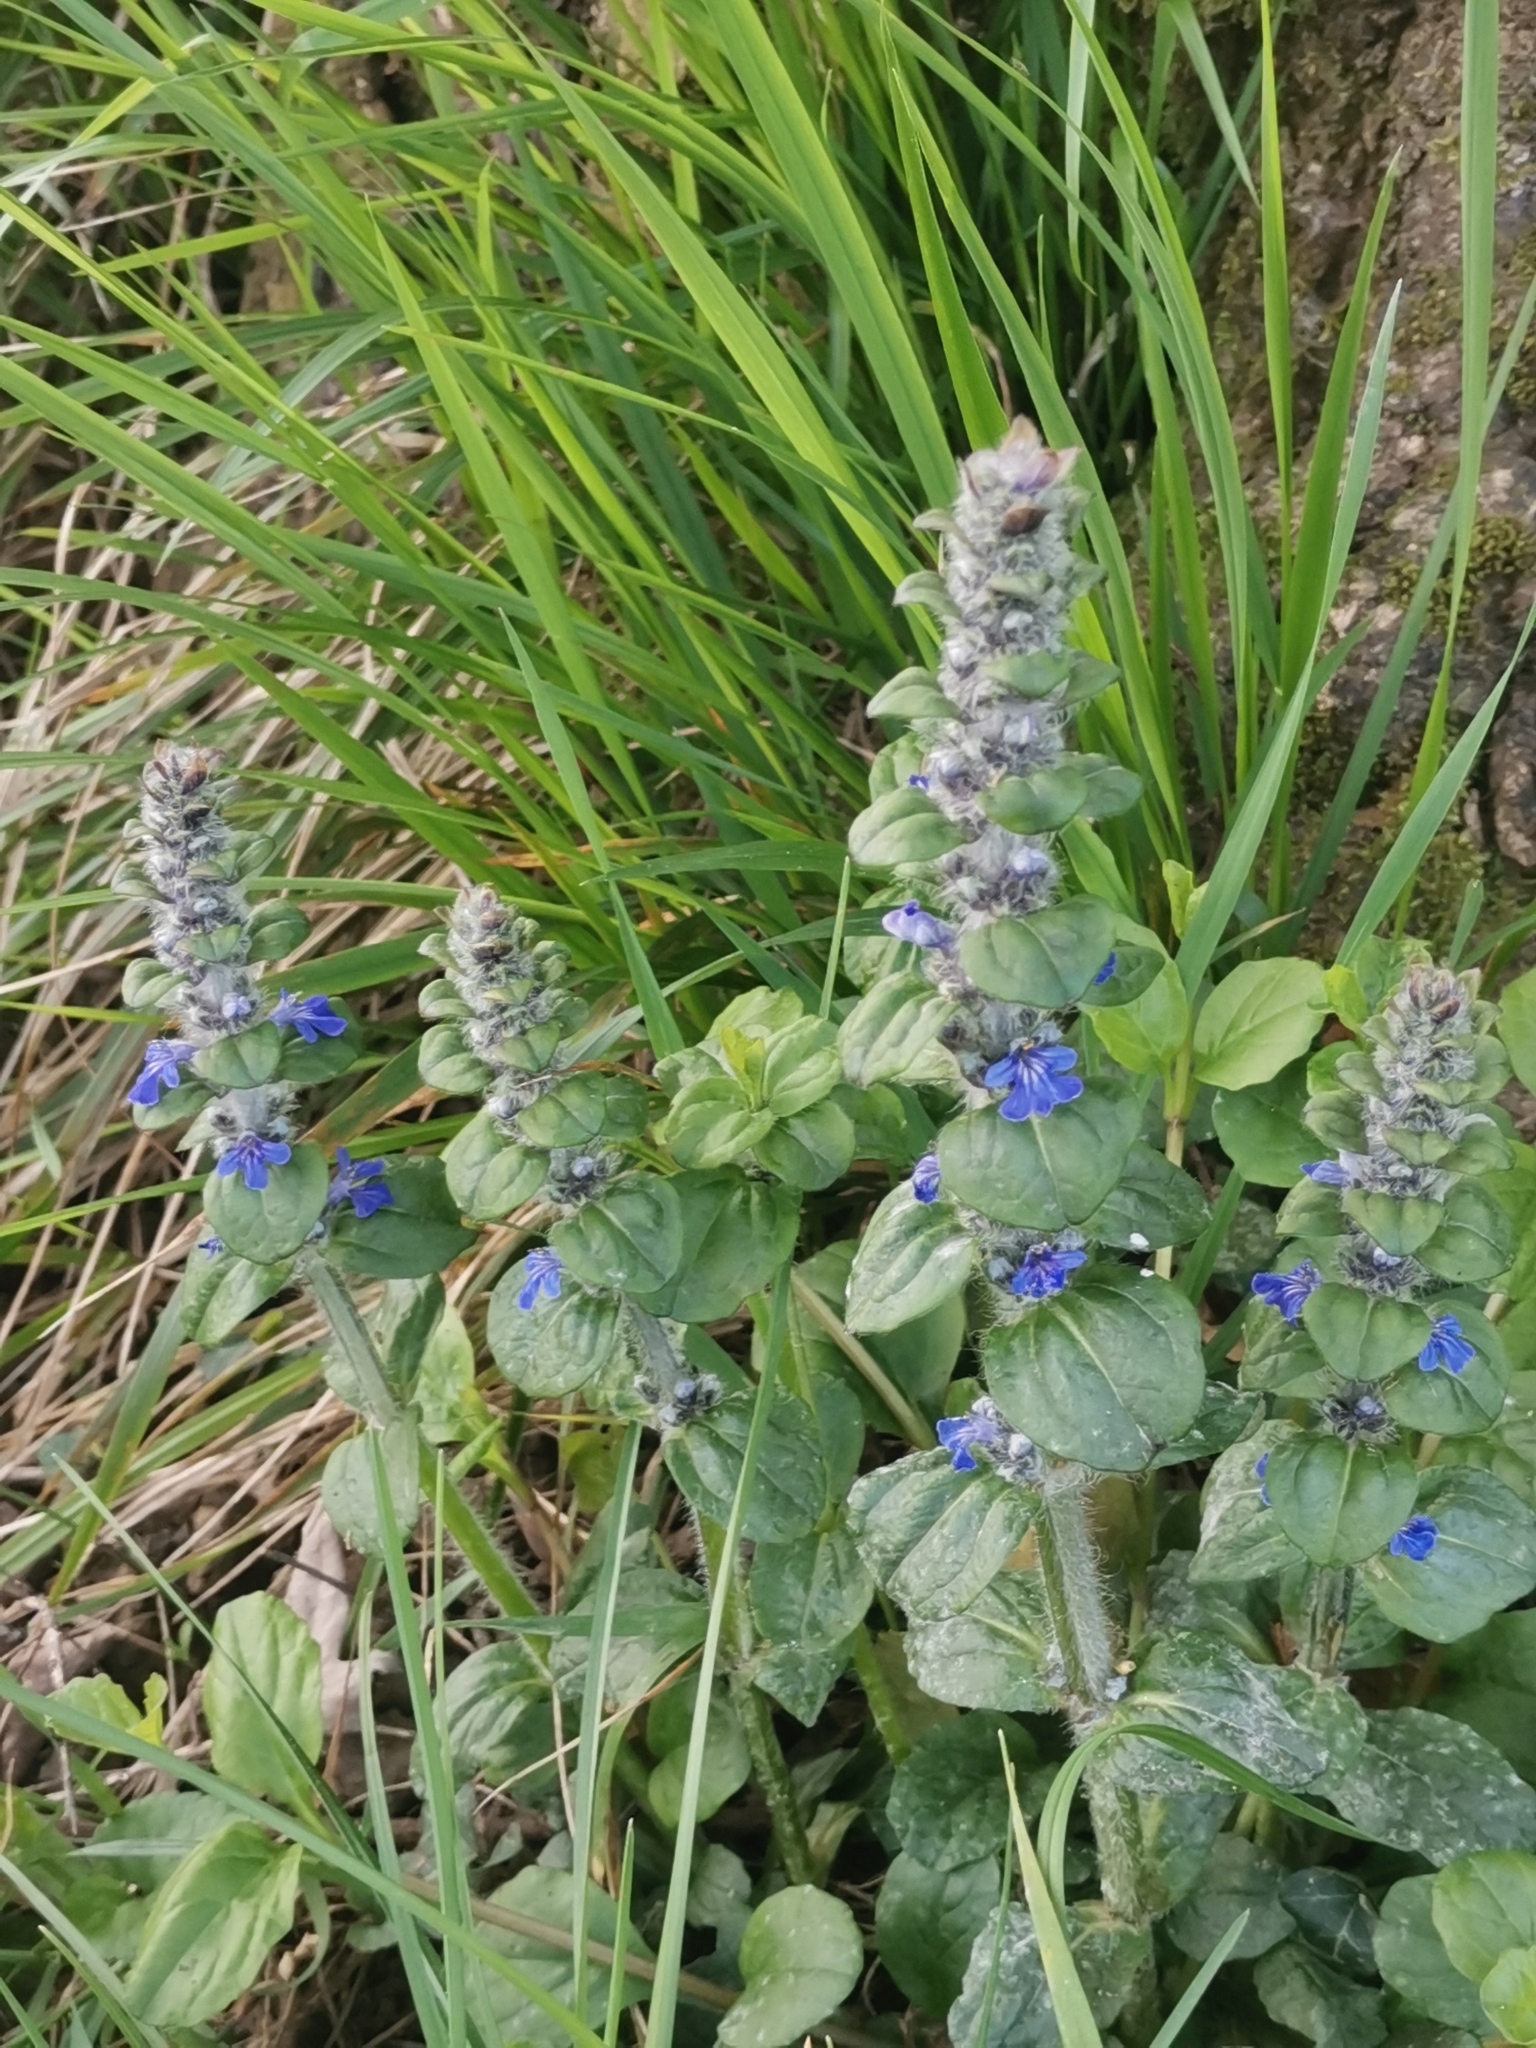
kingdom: Plantae
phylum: Tracheophyta
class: Magnoliopsida
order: Lamiales
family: Lamiaceae
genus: Ajuga
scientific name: Ajuga reptans
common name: Bugle
